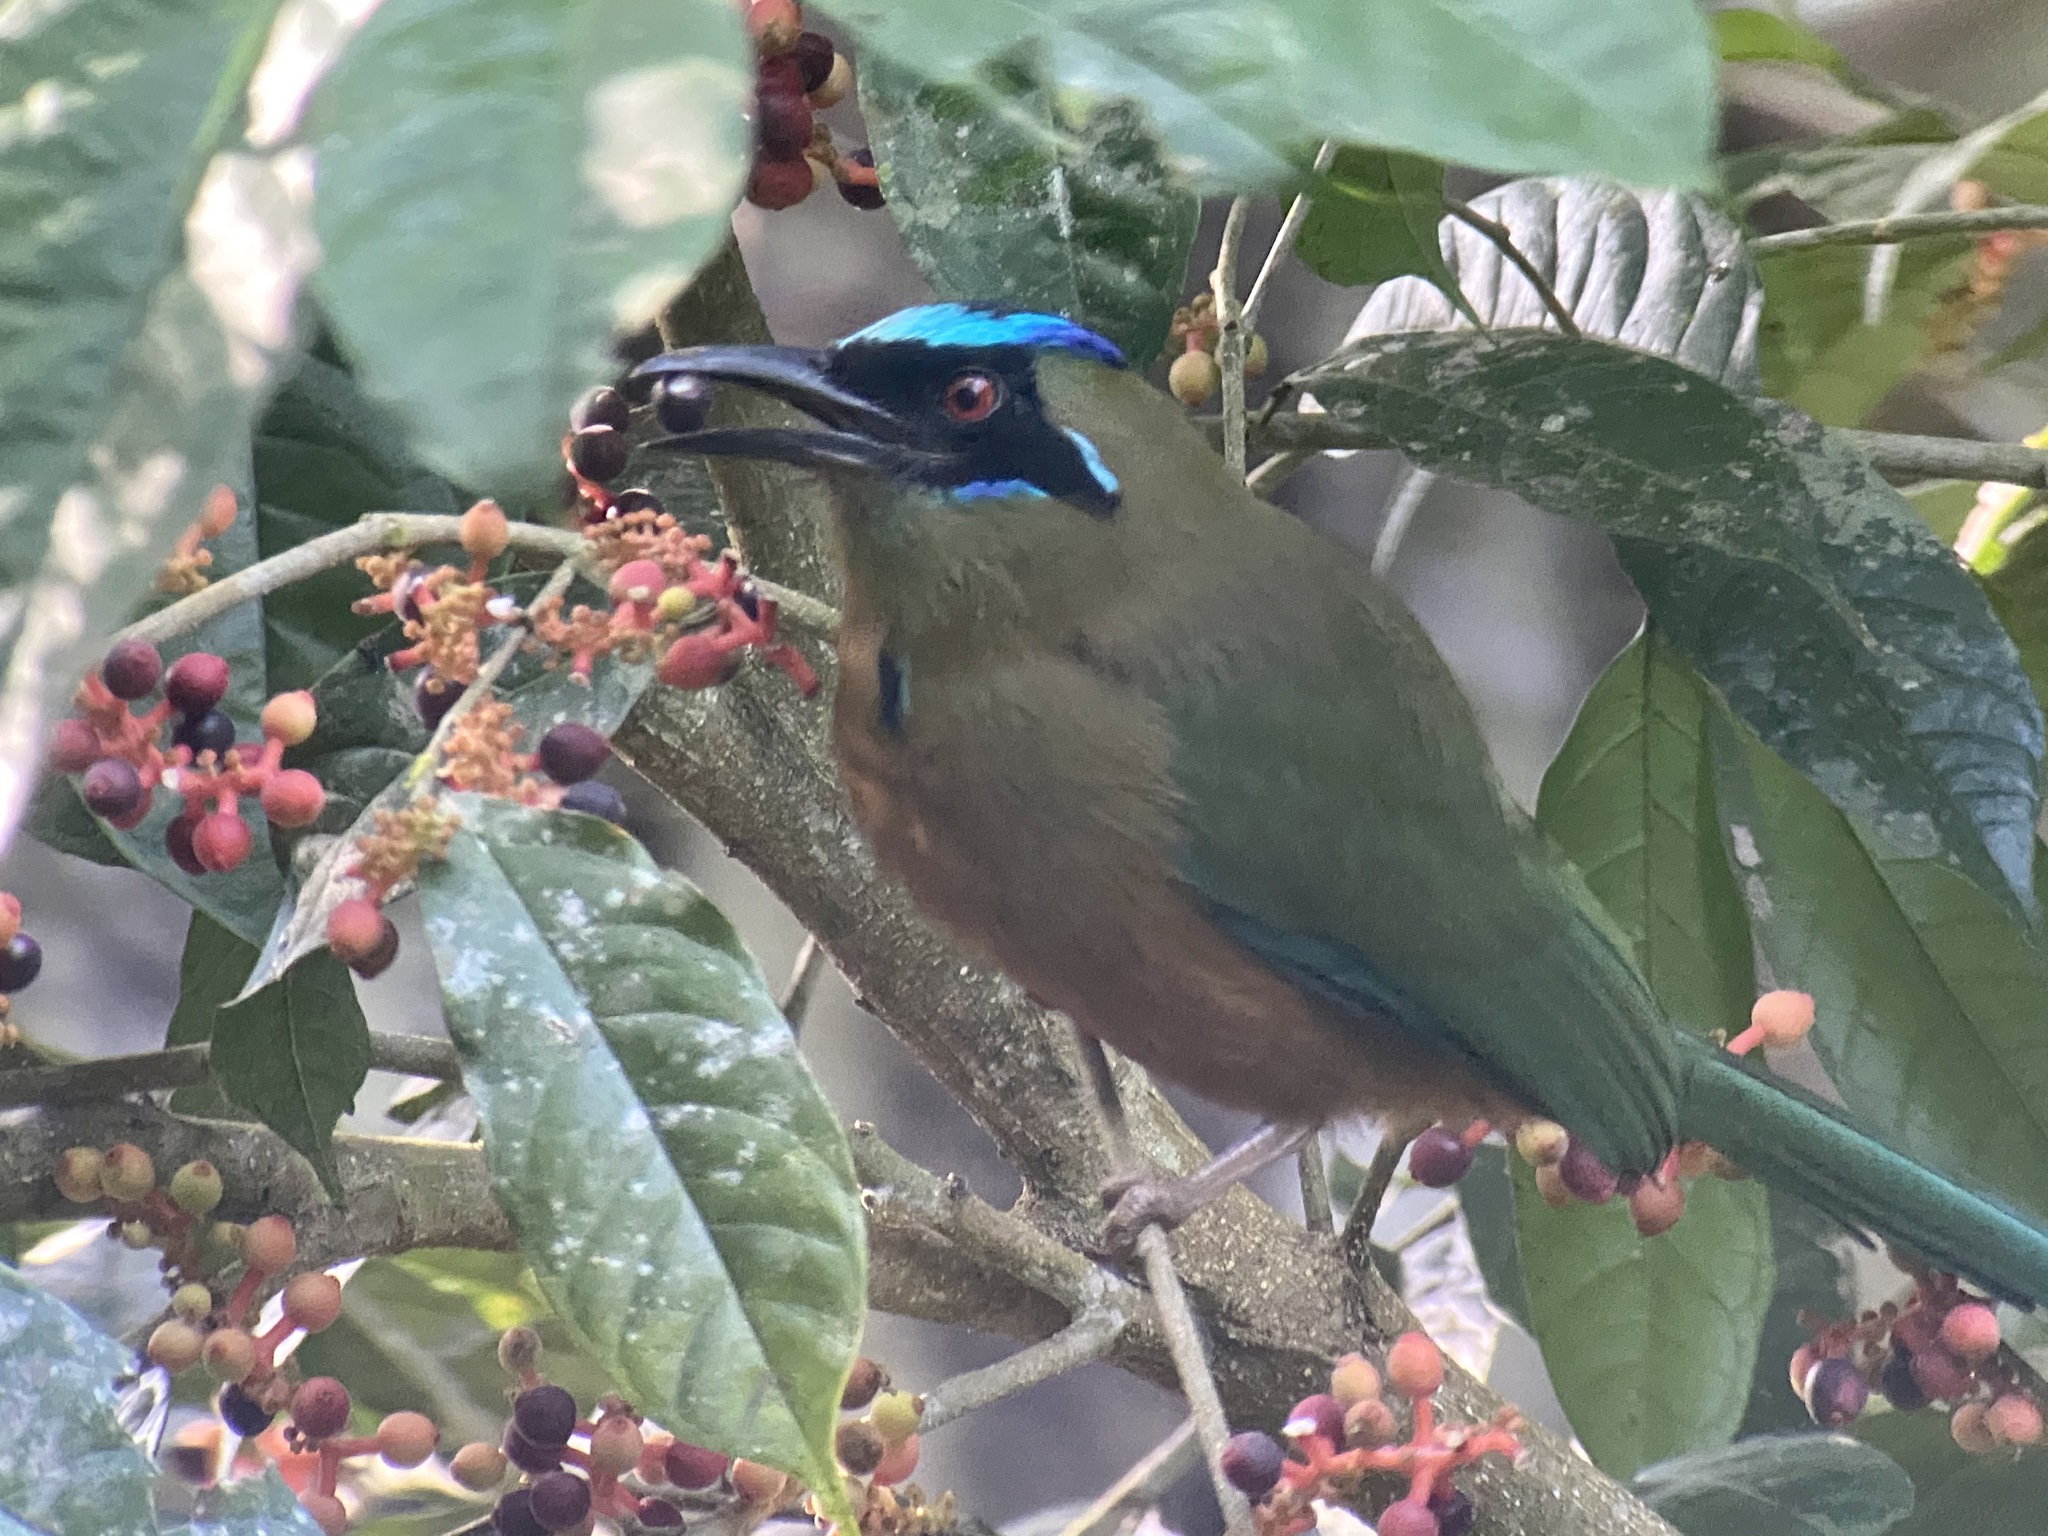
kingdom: Animalia
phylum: Chordata
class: Aves
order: Coraciiformes
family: Momotidae
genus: Momotus
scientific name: Momotus subrufescens
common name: Whooping motmot
